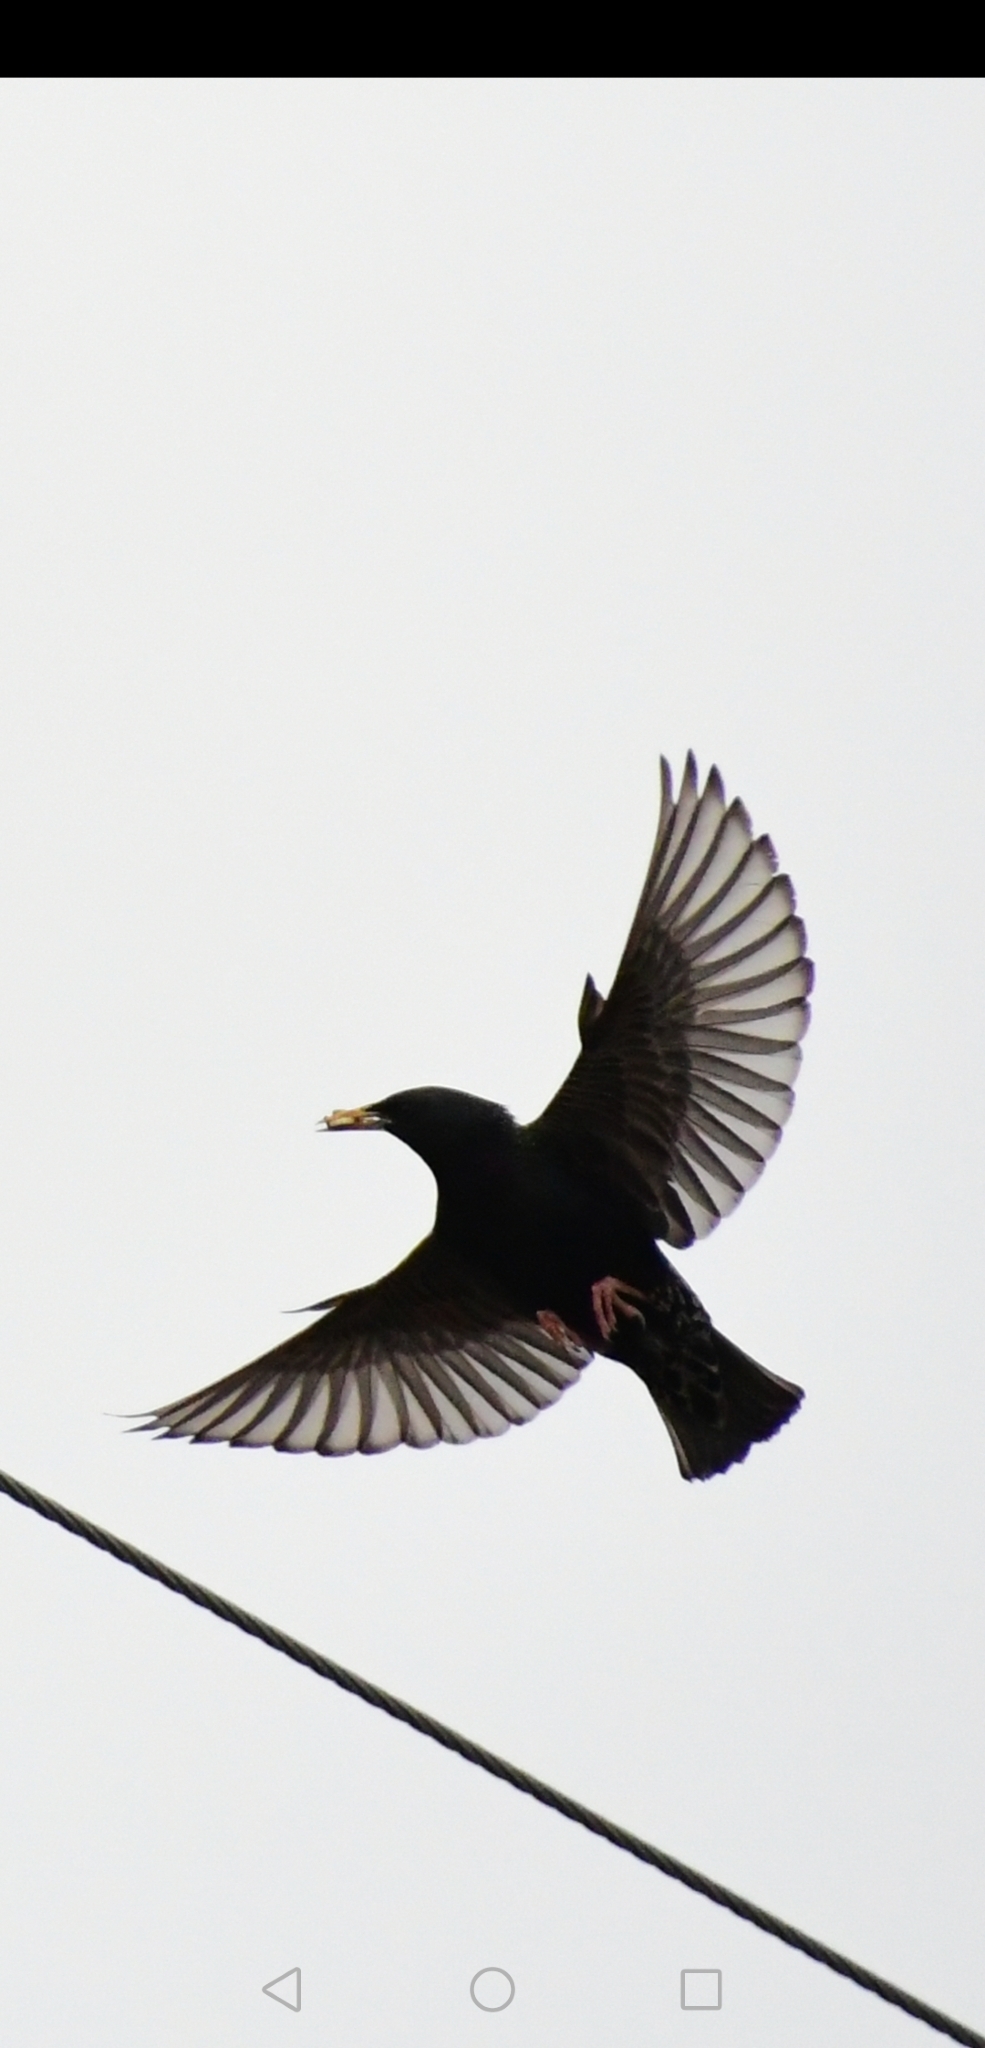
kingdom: Animalia
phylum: Chordata
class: Aves
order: Passeriformes
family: Sturnidae
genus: Sturnus
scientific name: Sturnus vulgaris
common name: Common starling
